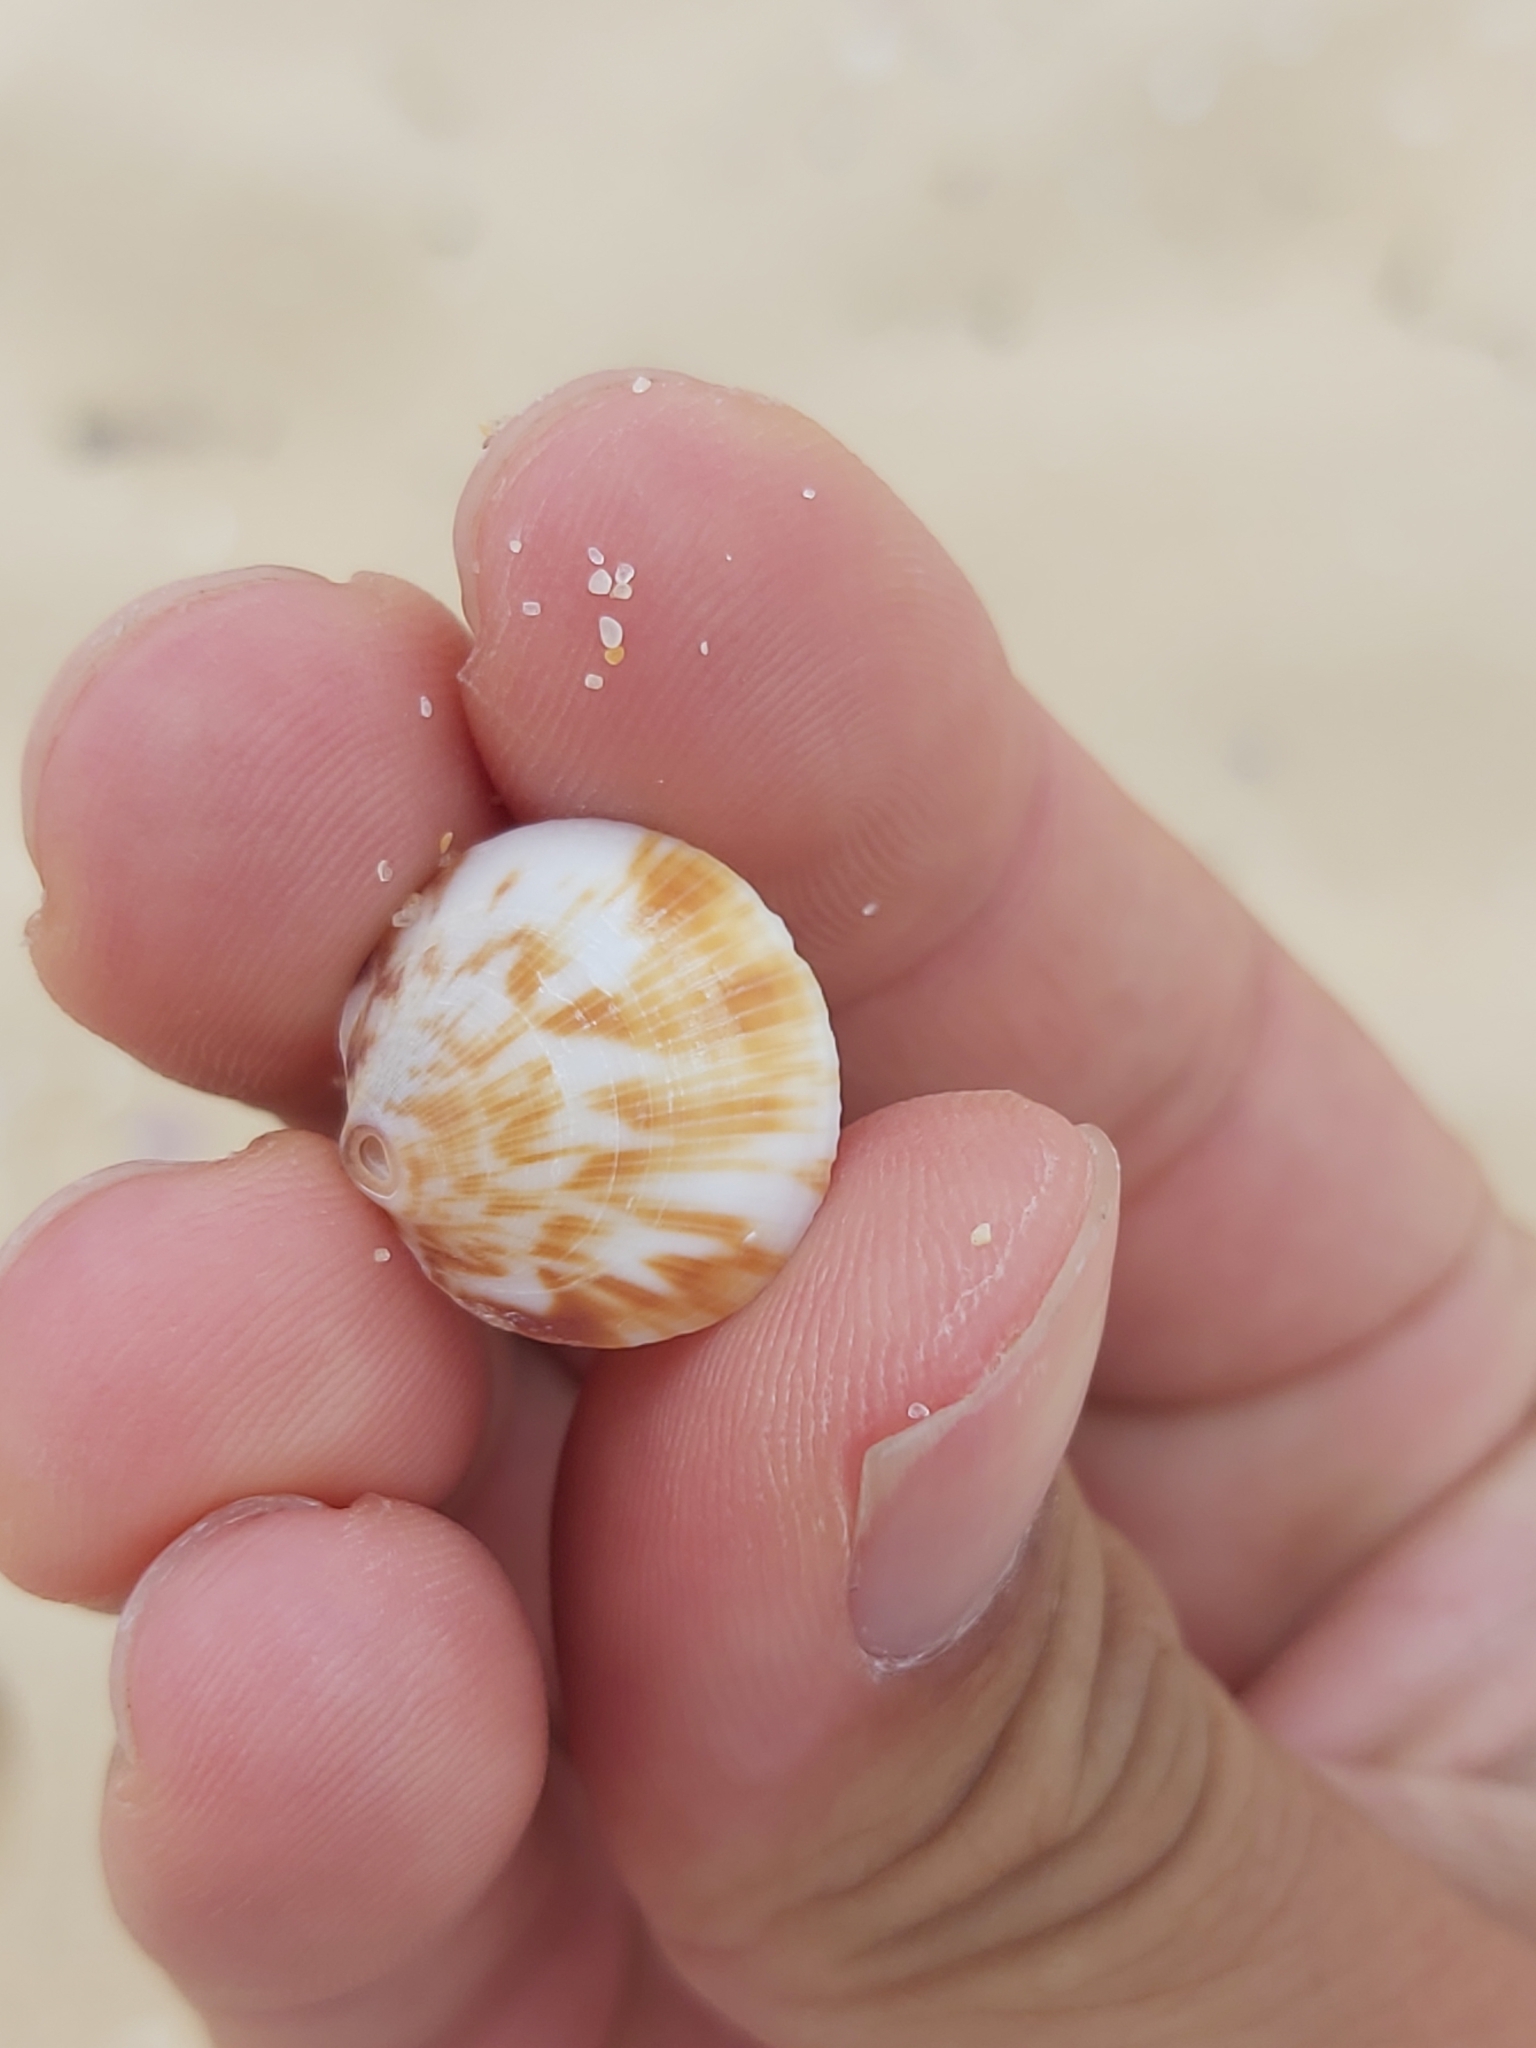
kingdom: Animalia
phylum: Mollusca
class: Bivalvia
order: Arcida
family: Glycymerididae
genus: Glycymeris
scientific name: Glycymeris grayana
